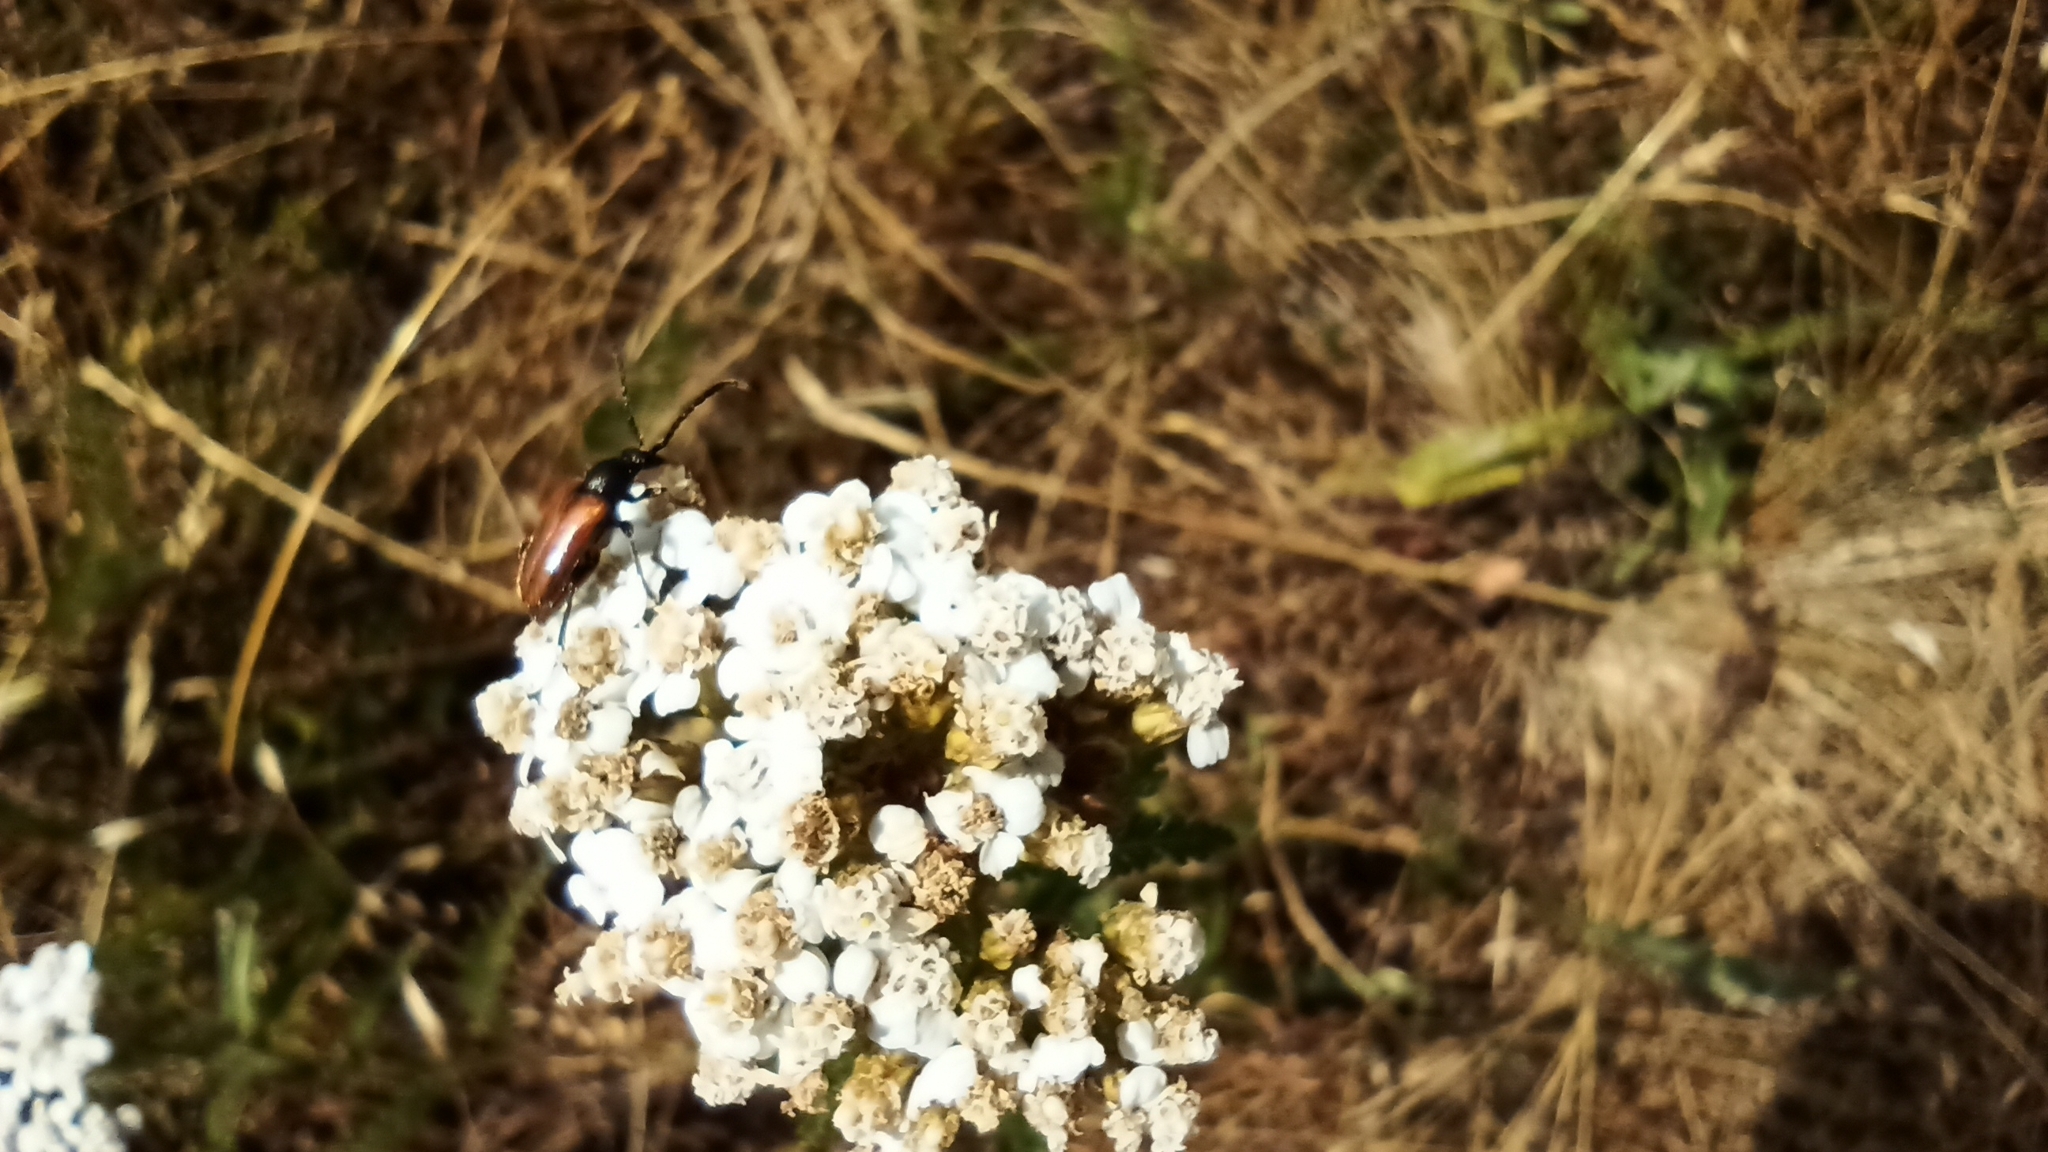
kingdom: Animalia
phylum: Arthropoda
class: Insecta
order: Coleoptera
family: Cerambycidae
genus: Pseudovadonia
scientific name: Pseudovadonia livida
